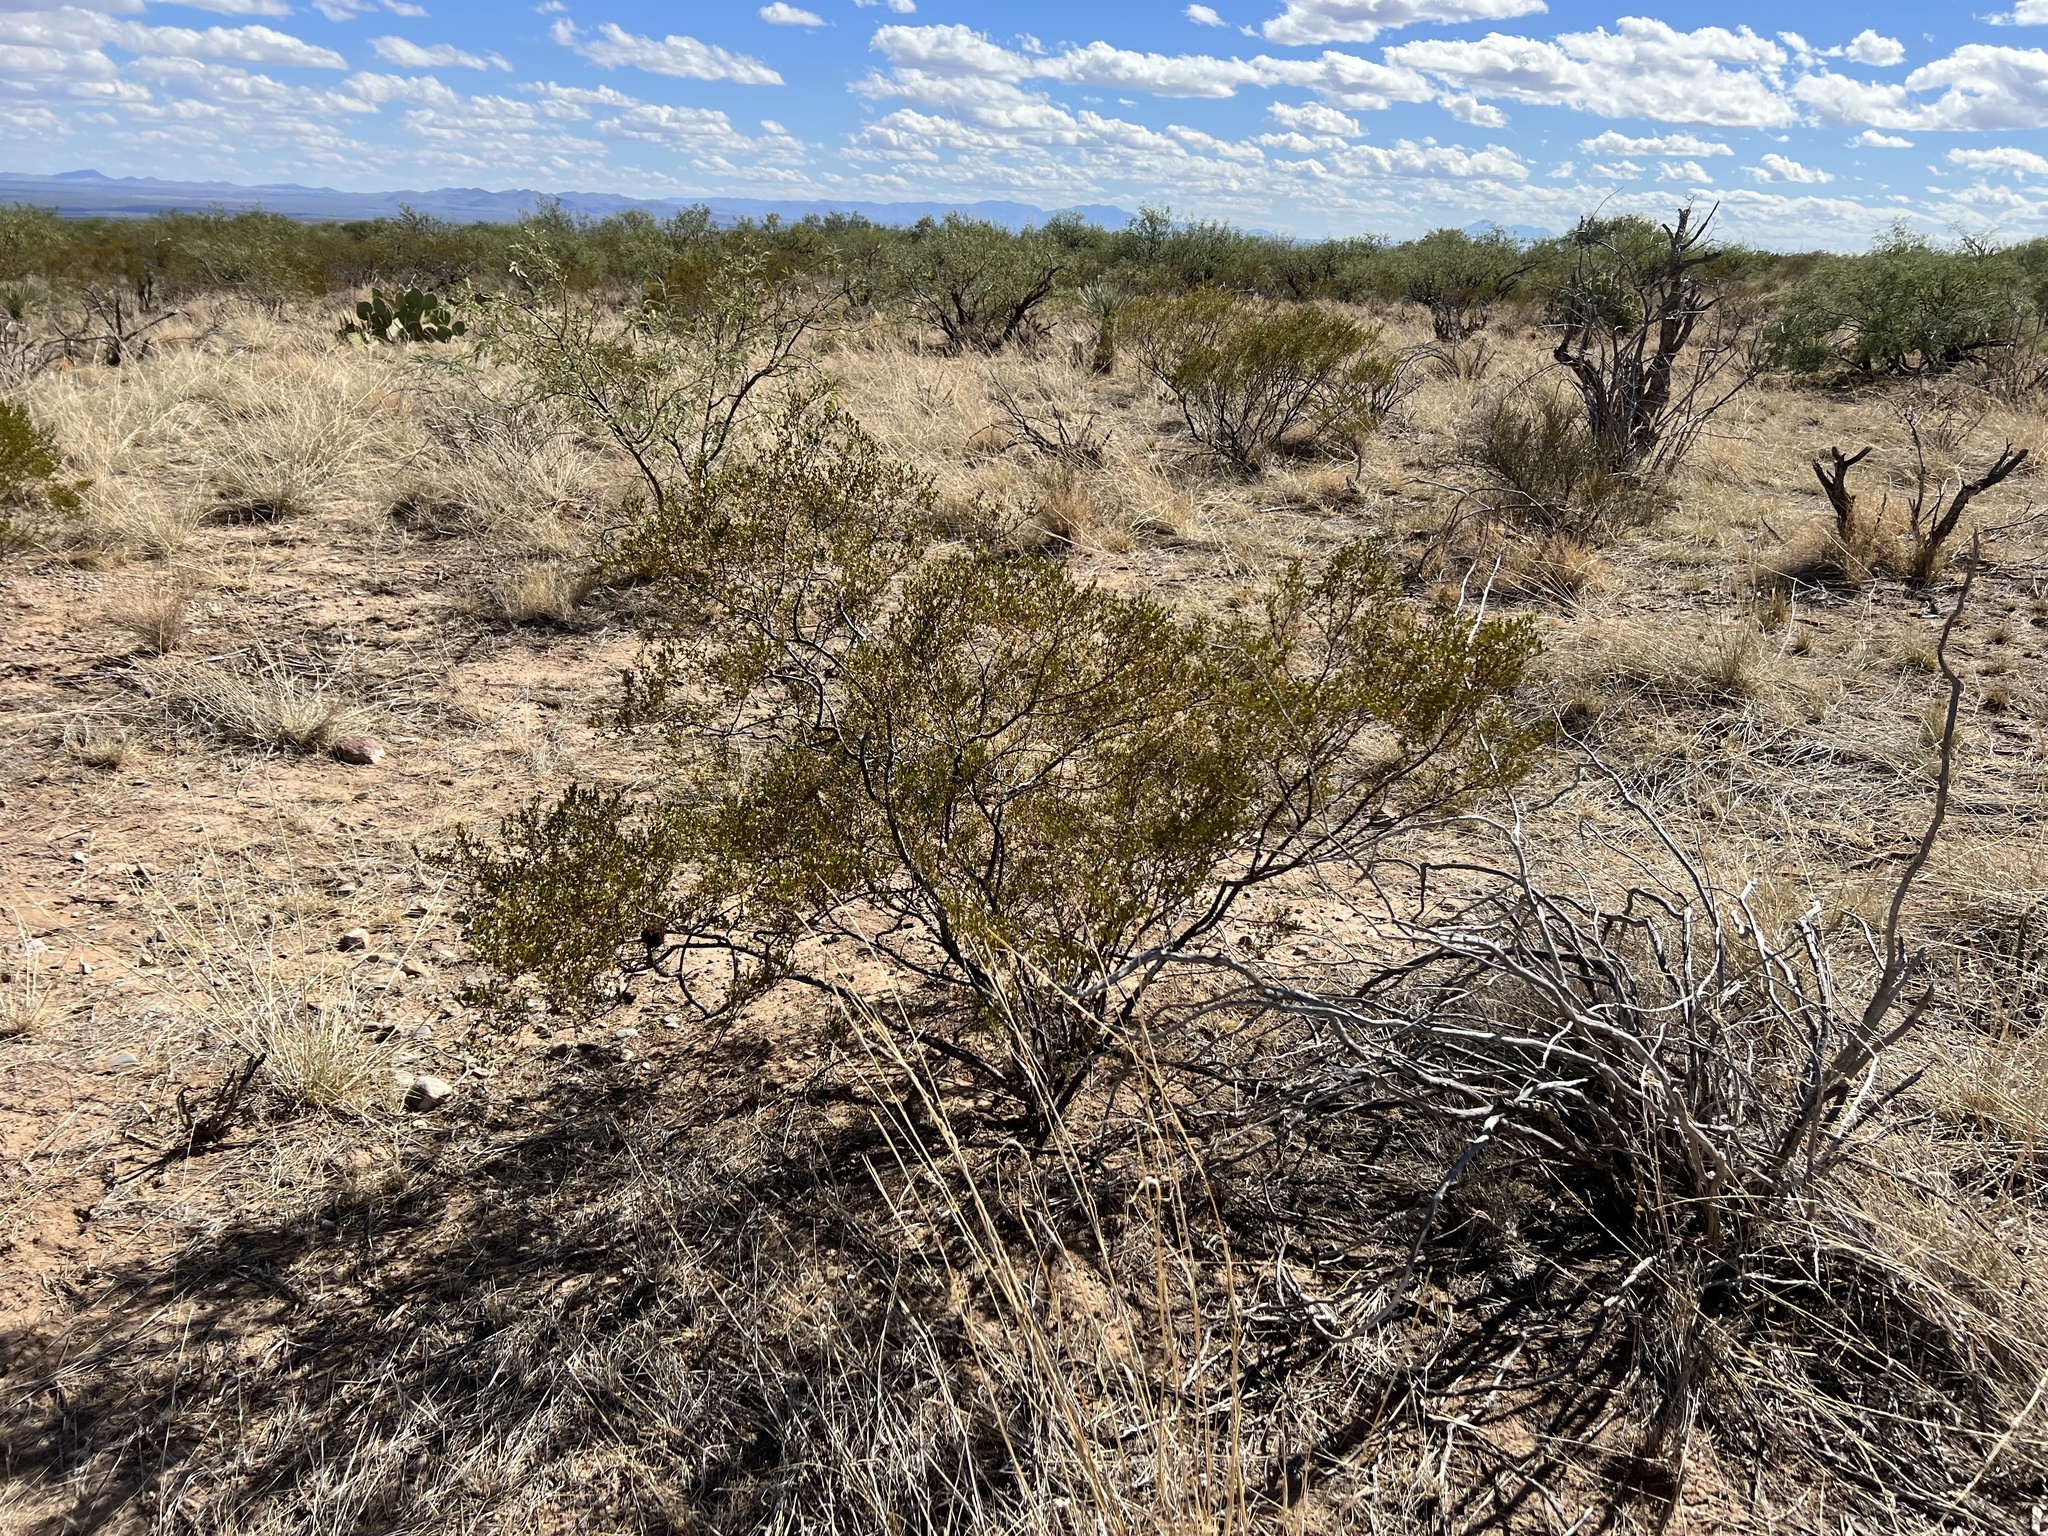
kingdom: Plantae
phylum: Tracheophyta
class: Magnoliopsida
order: Zygophyllales
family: Zygophyllaceae
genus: Larrea
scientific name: Larrea tridentata
